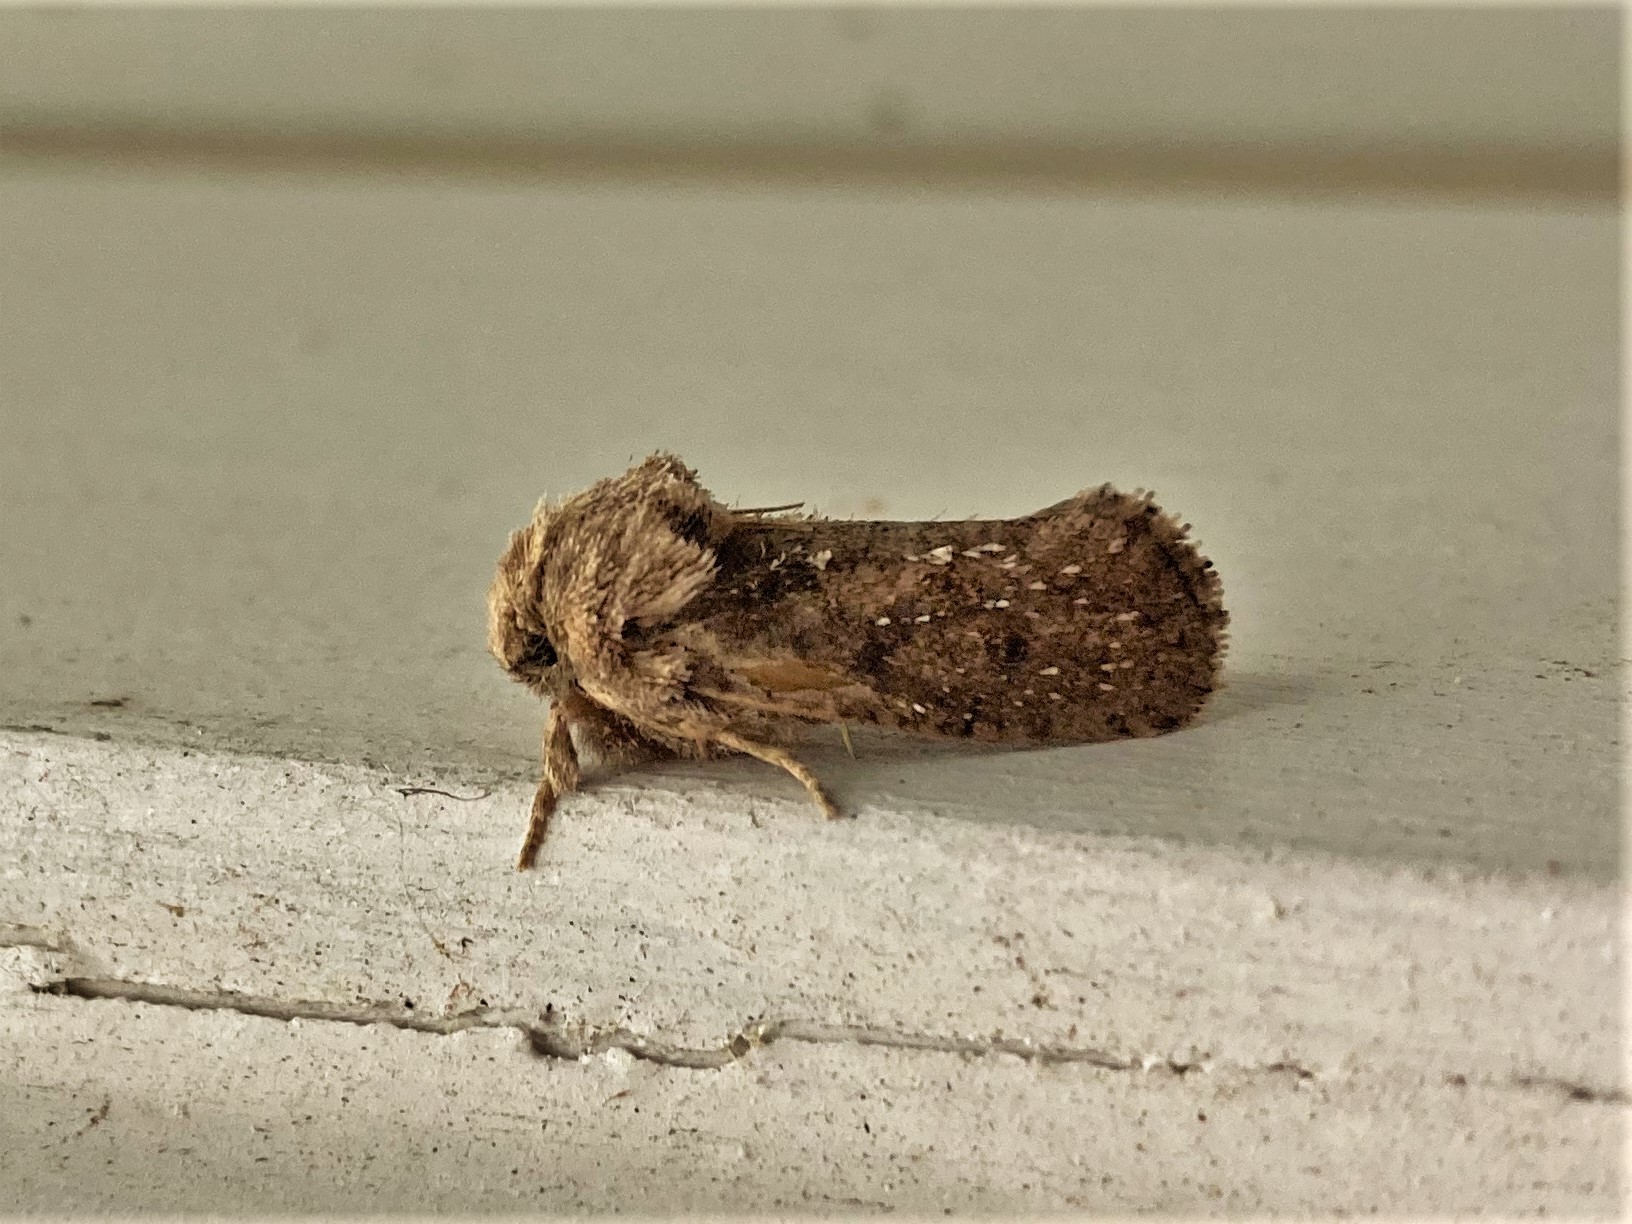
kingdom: Animalia
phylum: Arthropoda
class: Insecta
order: Lepidoptera
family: Tineidae
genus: Acrolophus
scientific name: Acrolophus arcanella
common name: Arcane grass tubeworm moth
